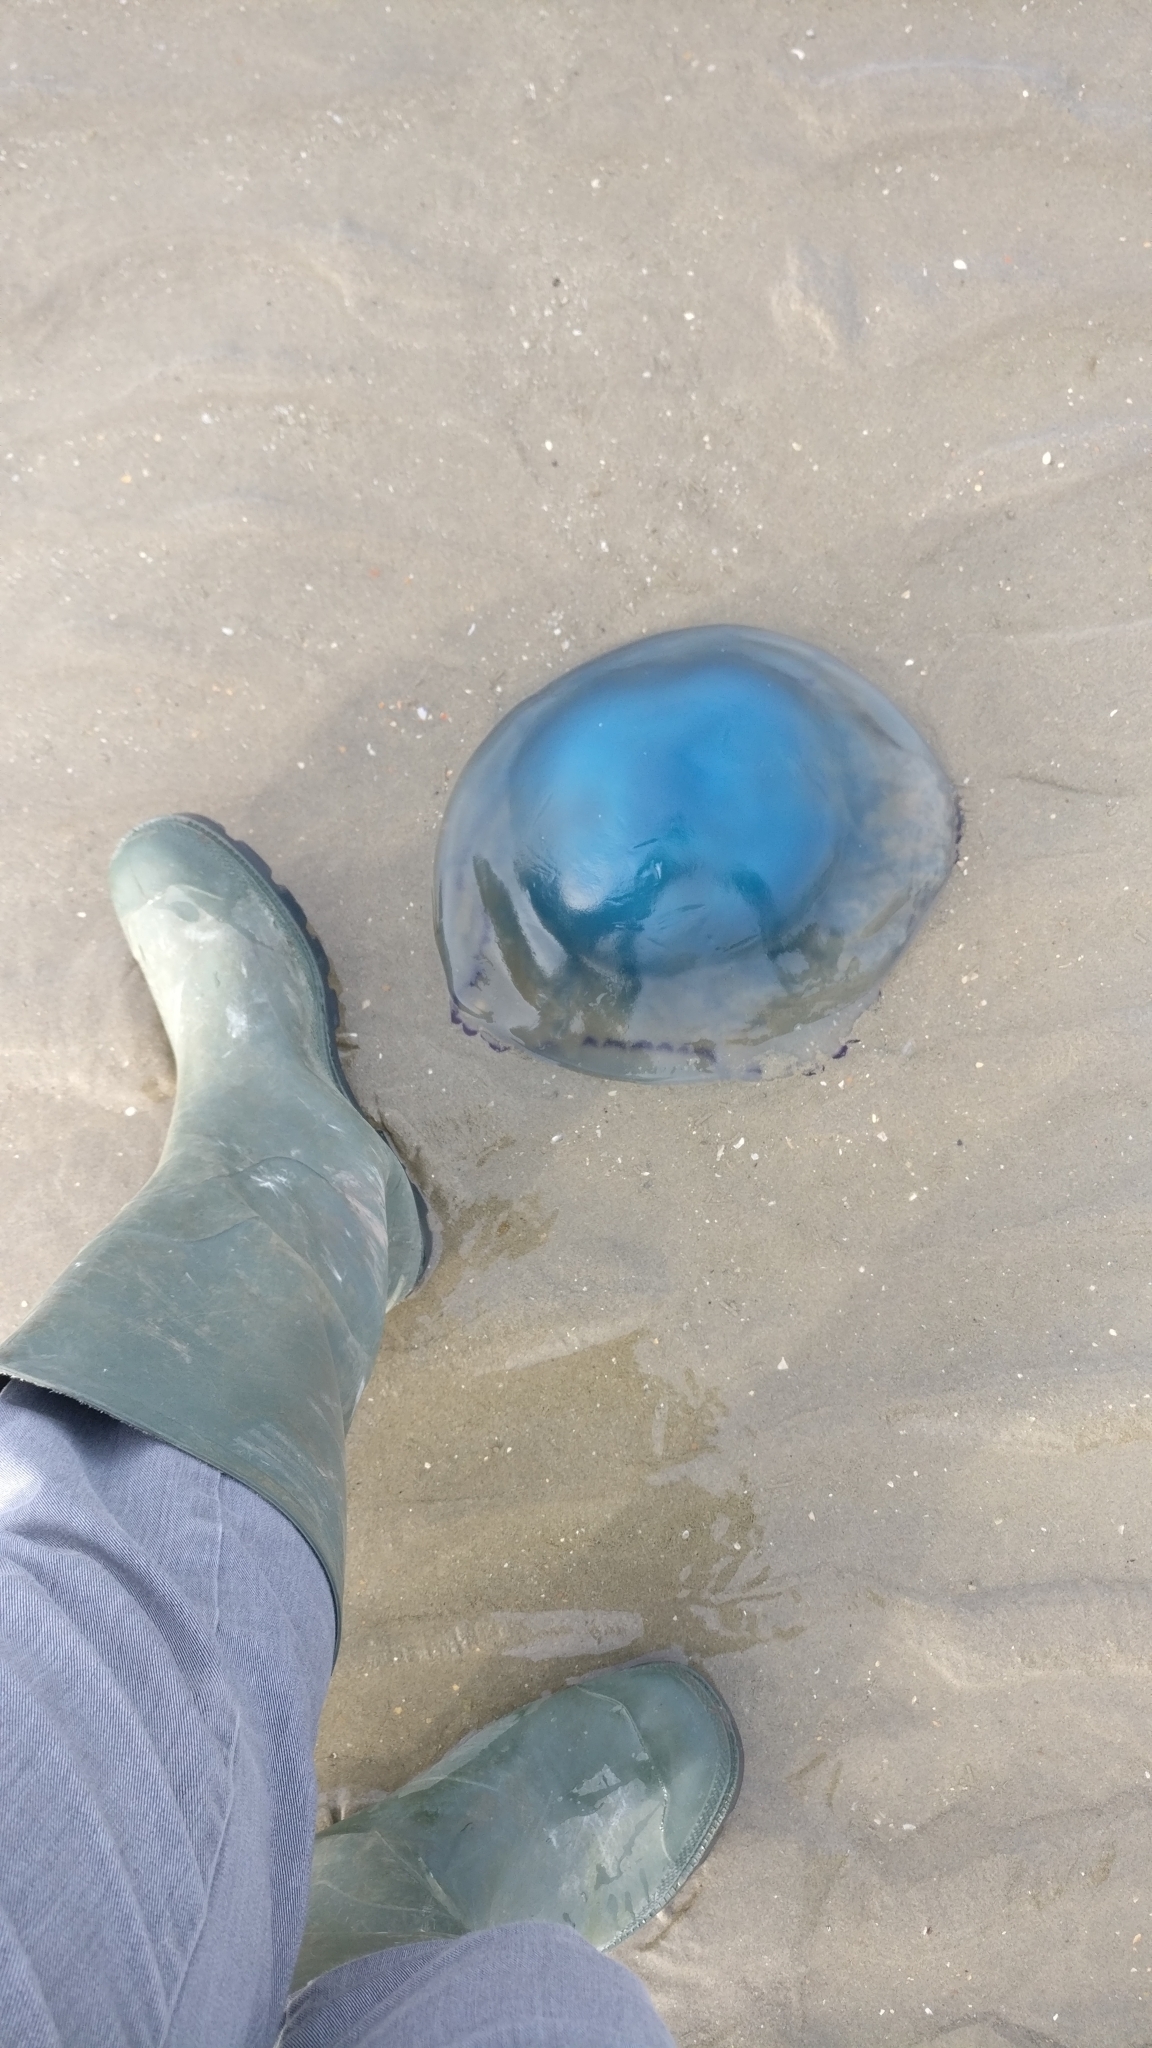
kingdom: Animalia
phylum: Cnidaria
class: Scyphozoa
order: Rhizostomeae
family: Rhizostomatidae
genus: Rhizostoma
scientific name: Rhizostoma octopus
